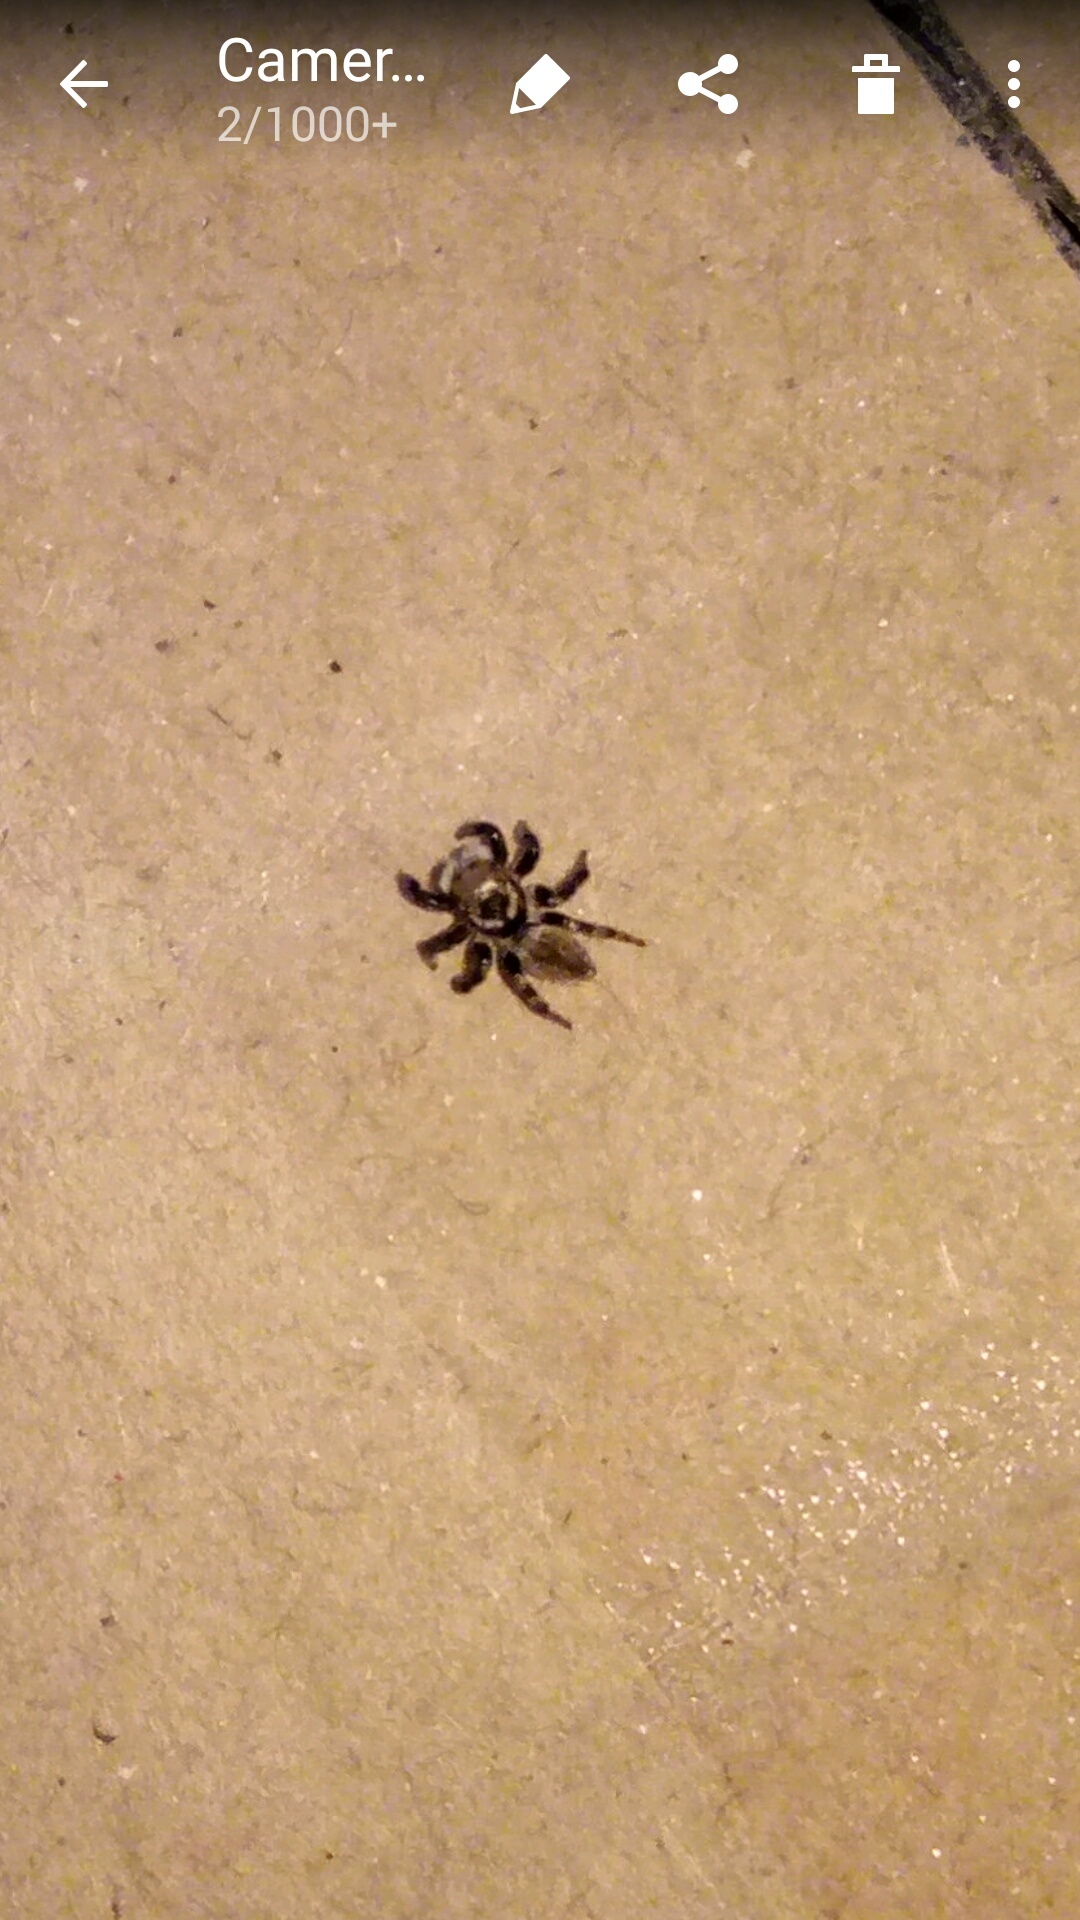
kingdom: Animalia
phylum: Arthropoda
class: Arachnida
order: Araneae
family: Salticidae
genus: Maratus
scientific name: Maratus griseus
